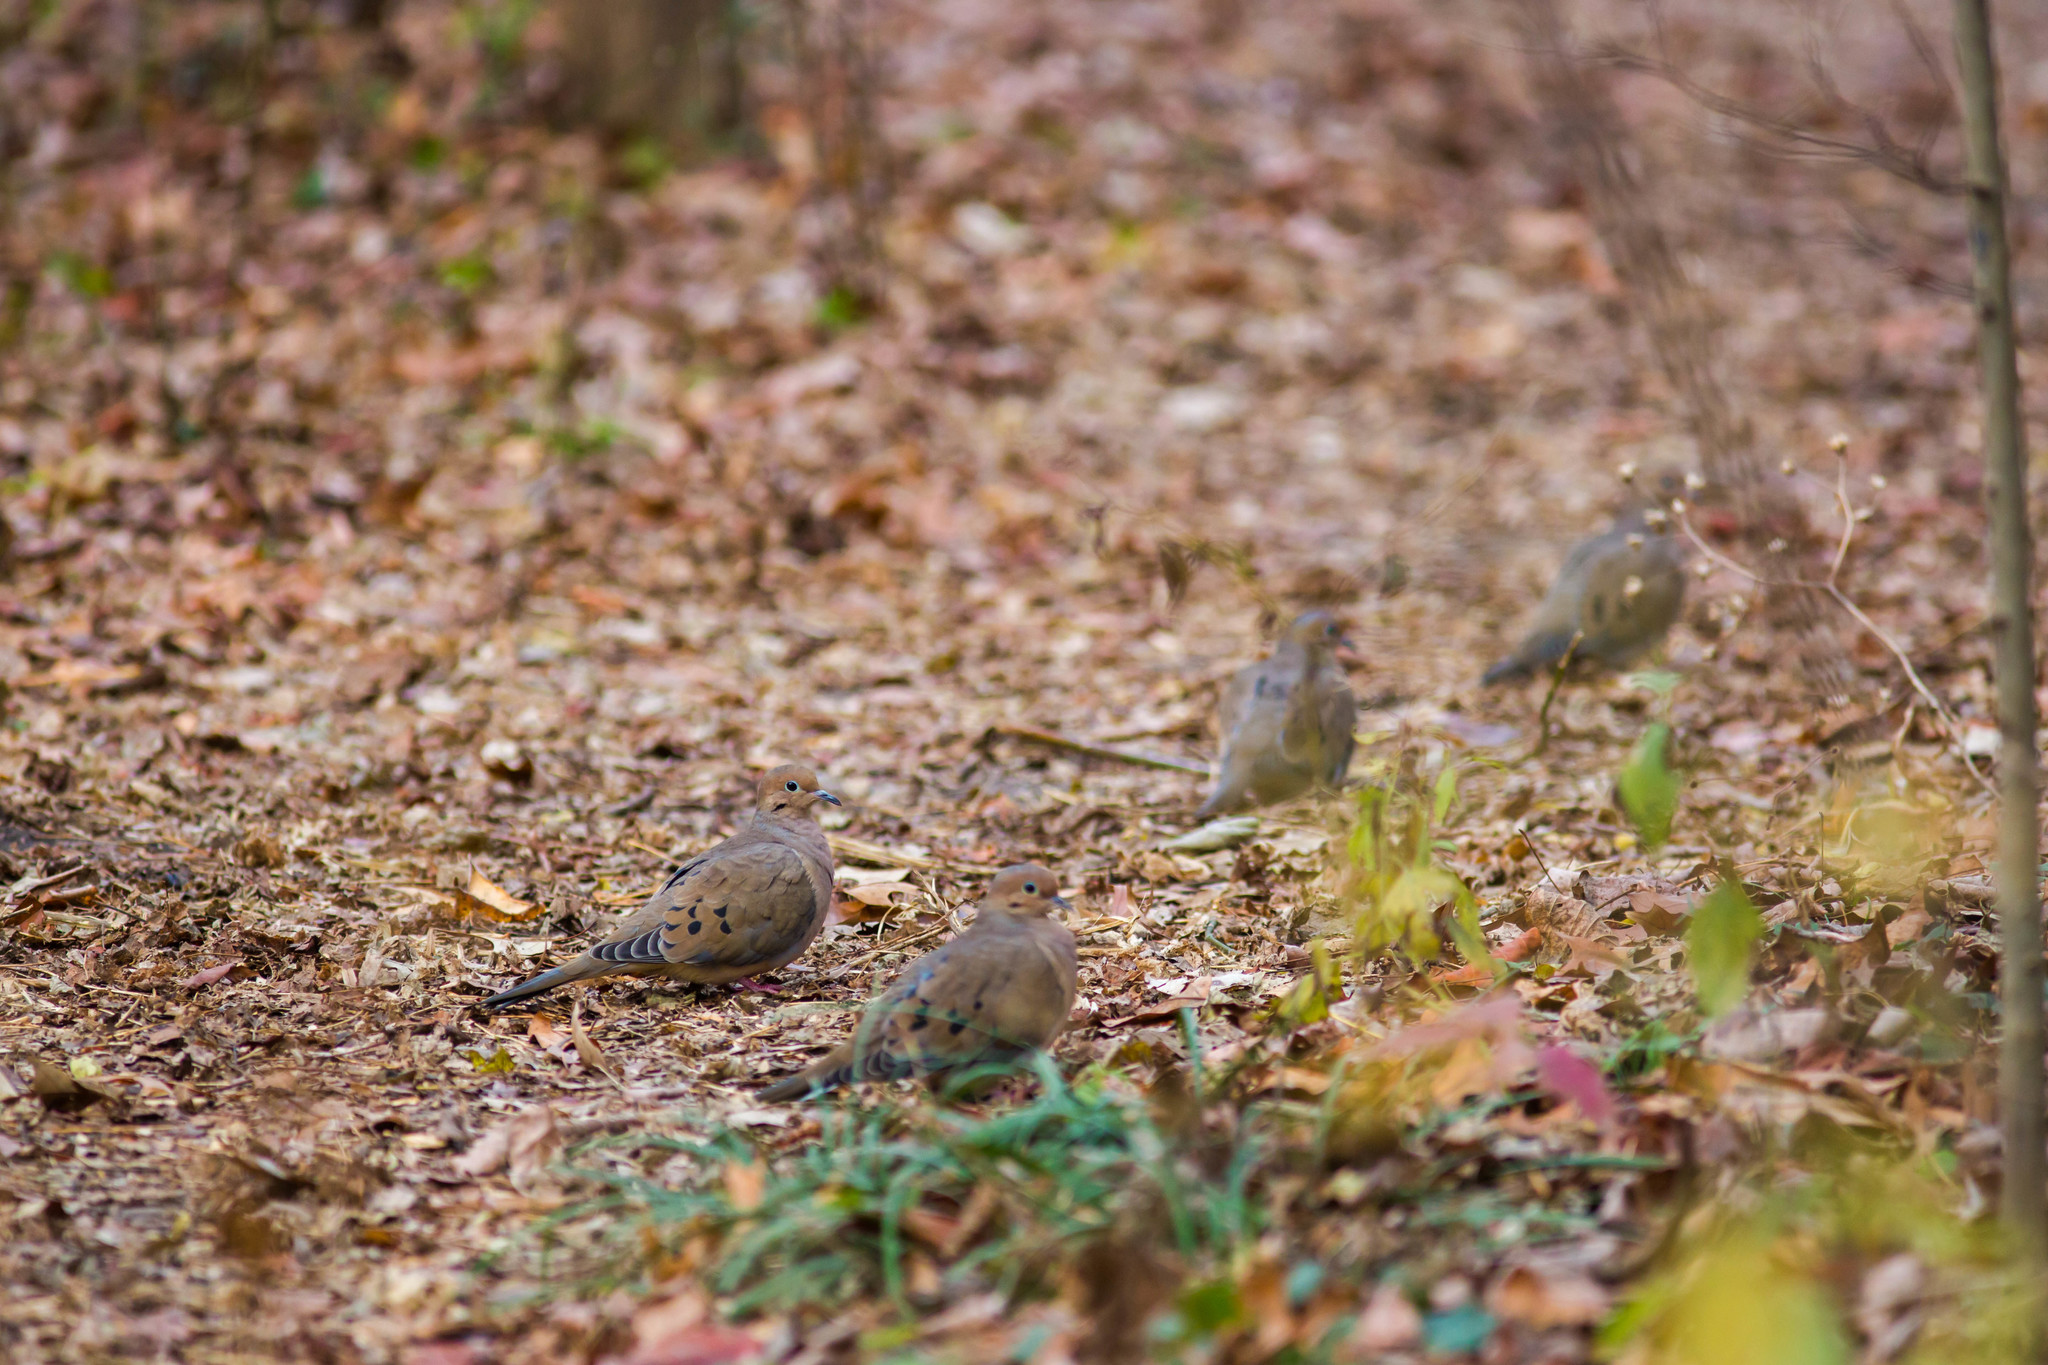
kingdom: Animalia
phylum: Chordata
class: Aves
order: Columbiformes
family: Columbidae
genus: Zenaida
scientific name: Zenaida macroura
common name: Mourning dove
